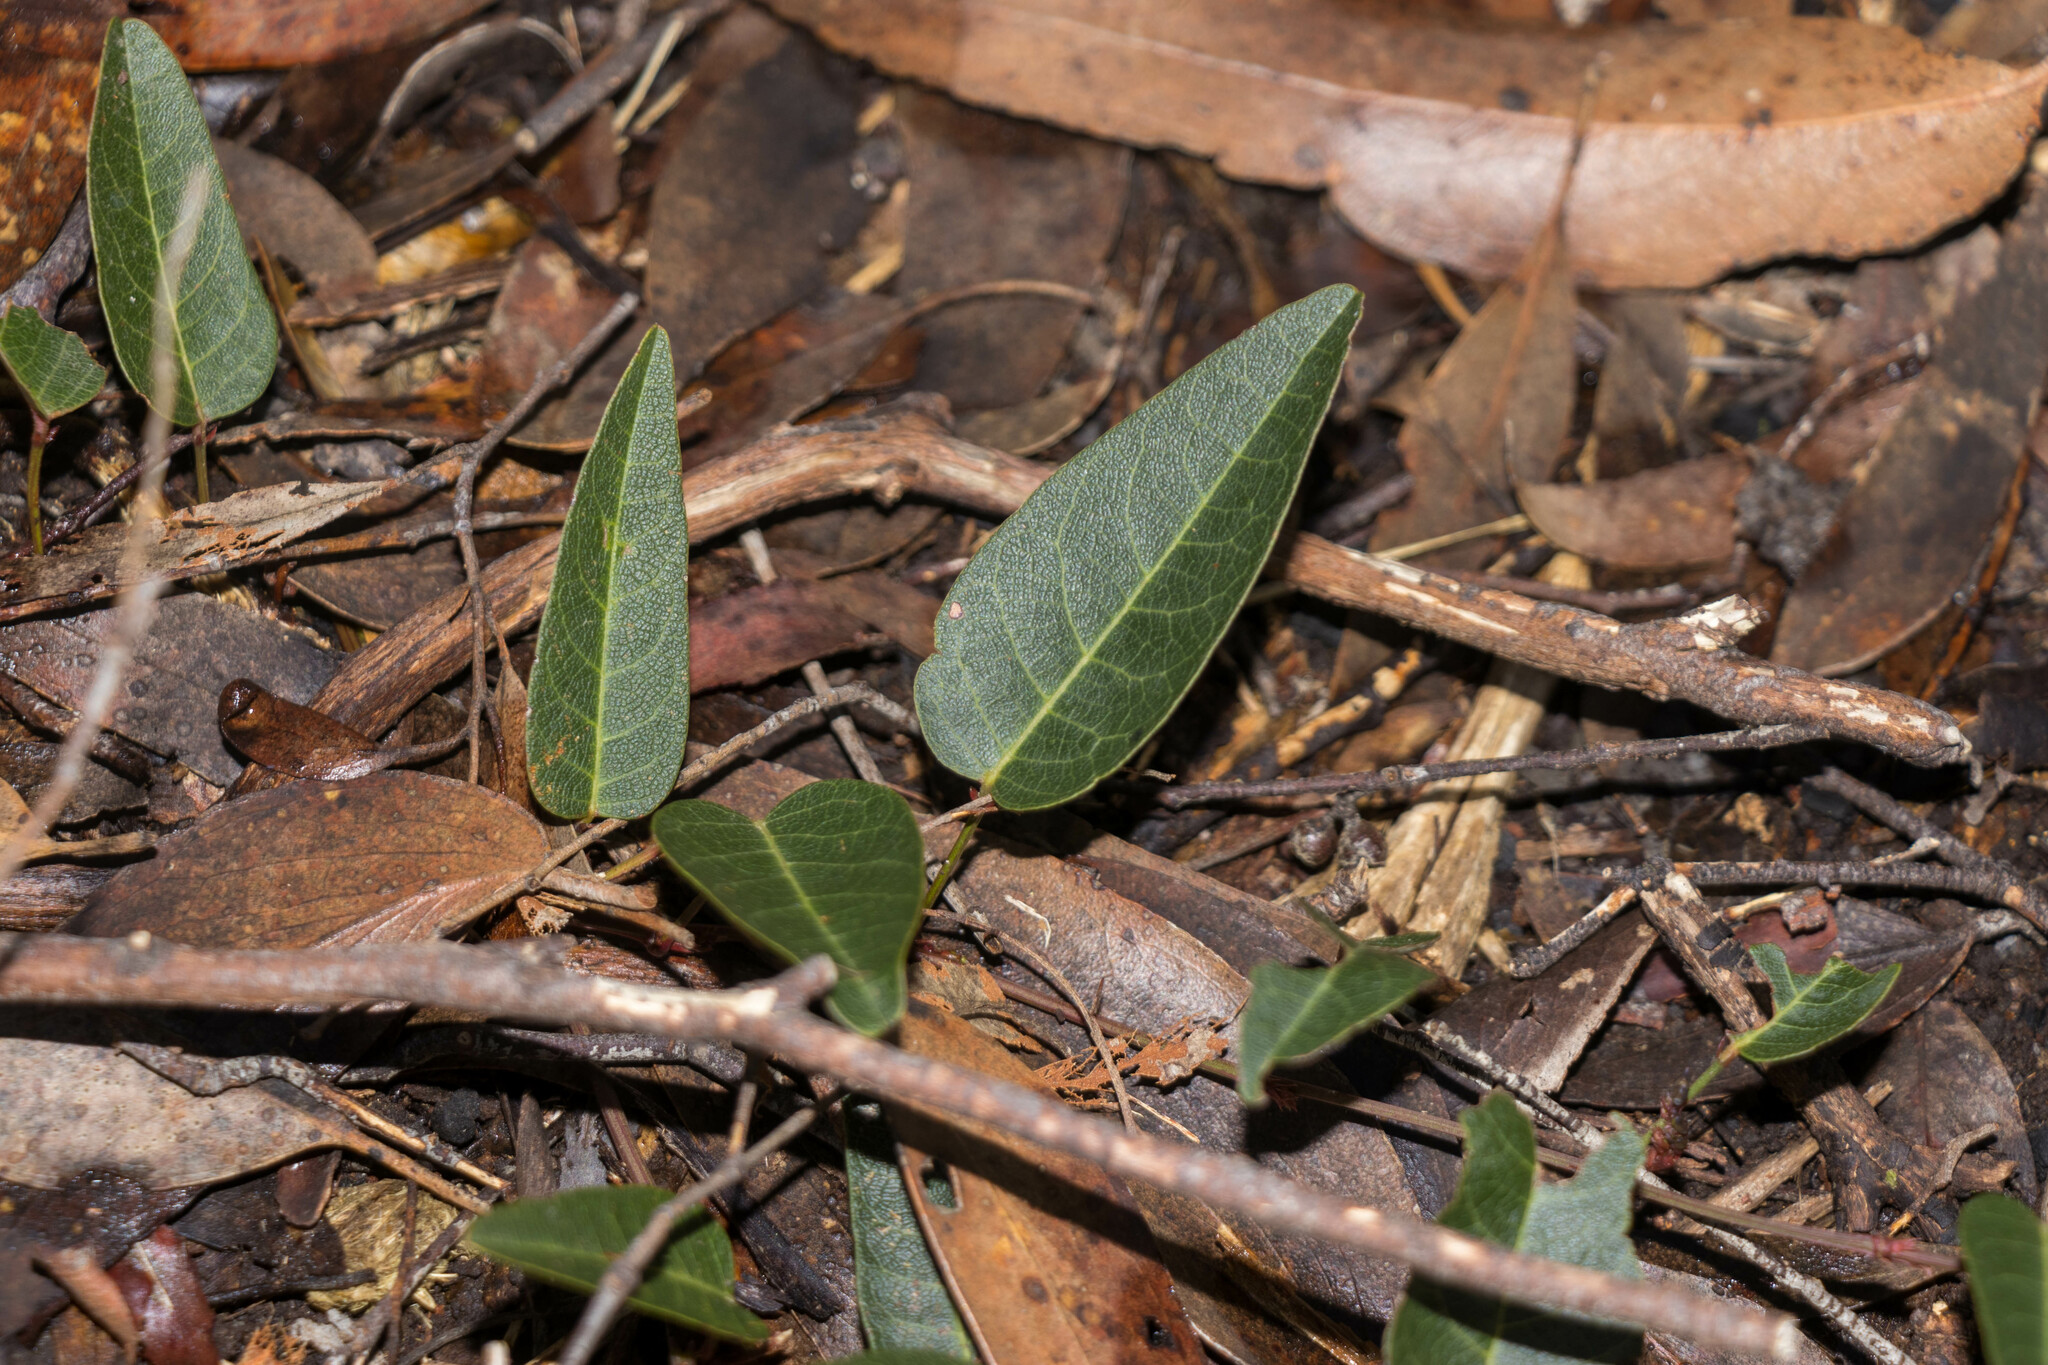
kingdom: Plantae
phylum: Tracheophyta
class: Magnoliopsida
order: Fabales
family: Fabaceae
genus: Hardenbergia
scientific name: Hardenbergia violacea
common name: Coral-pea
